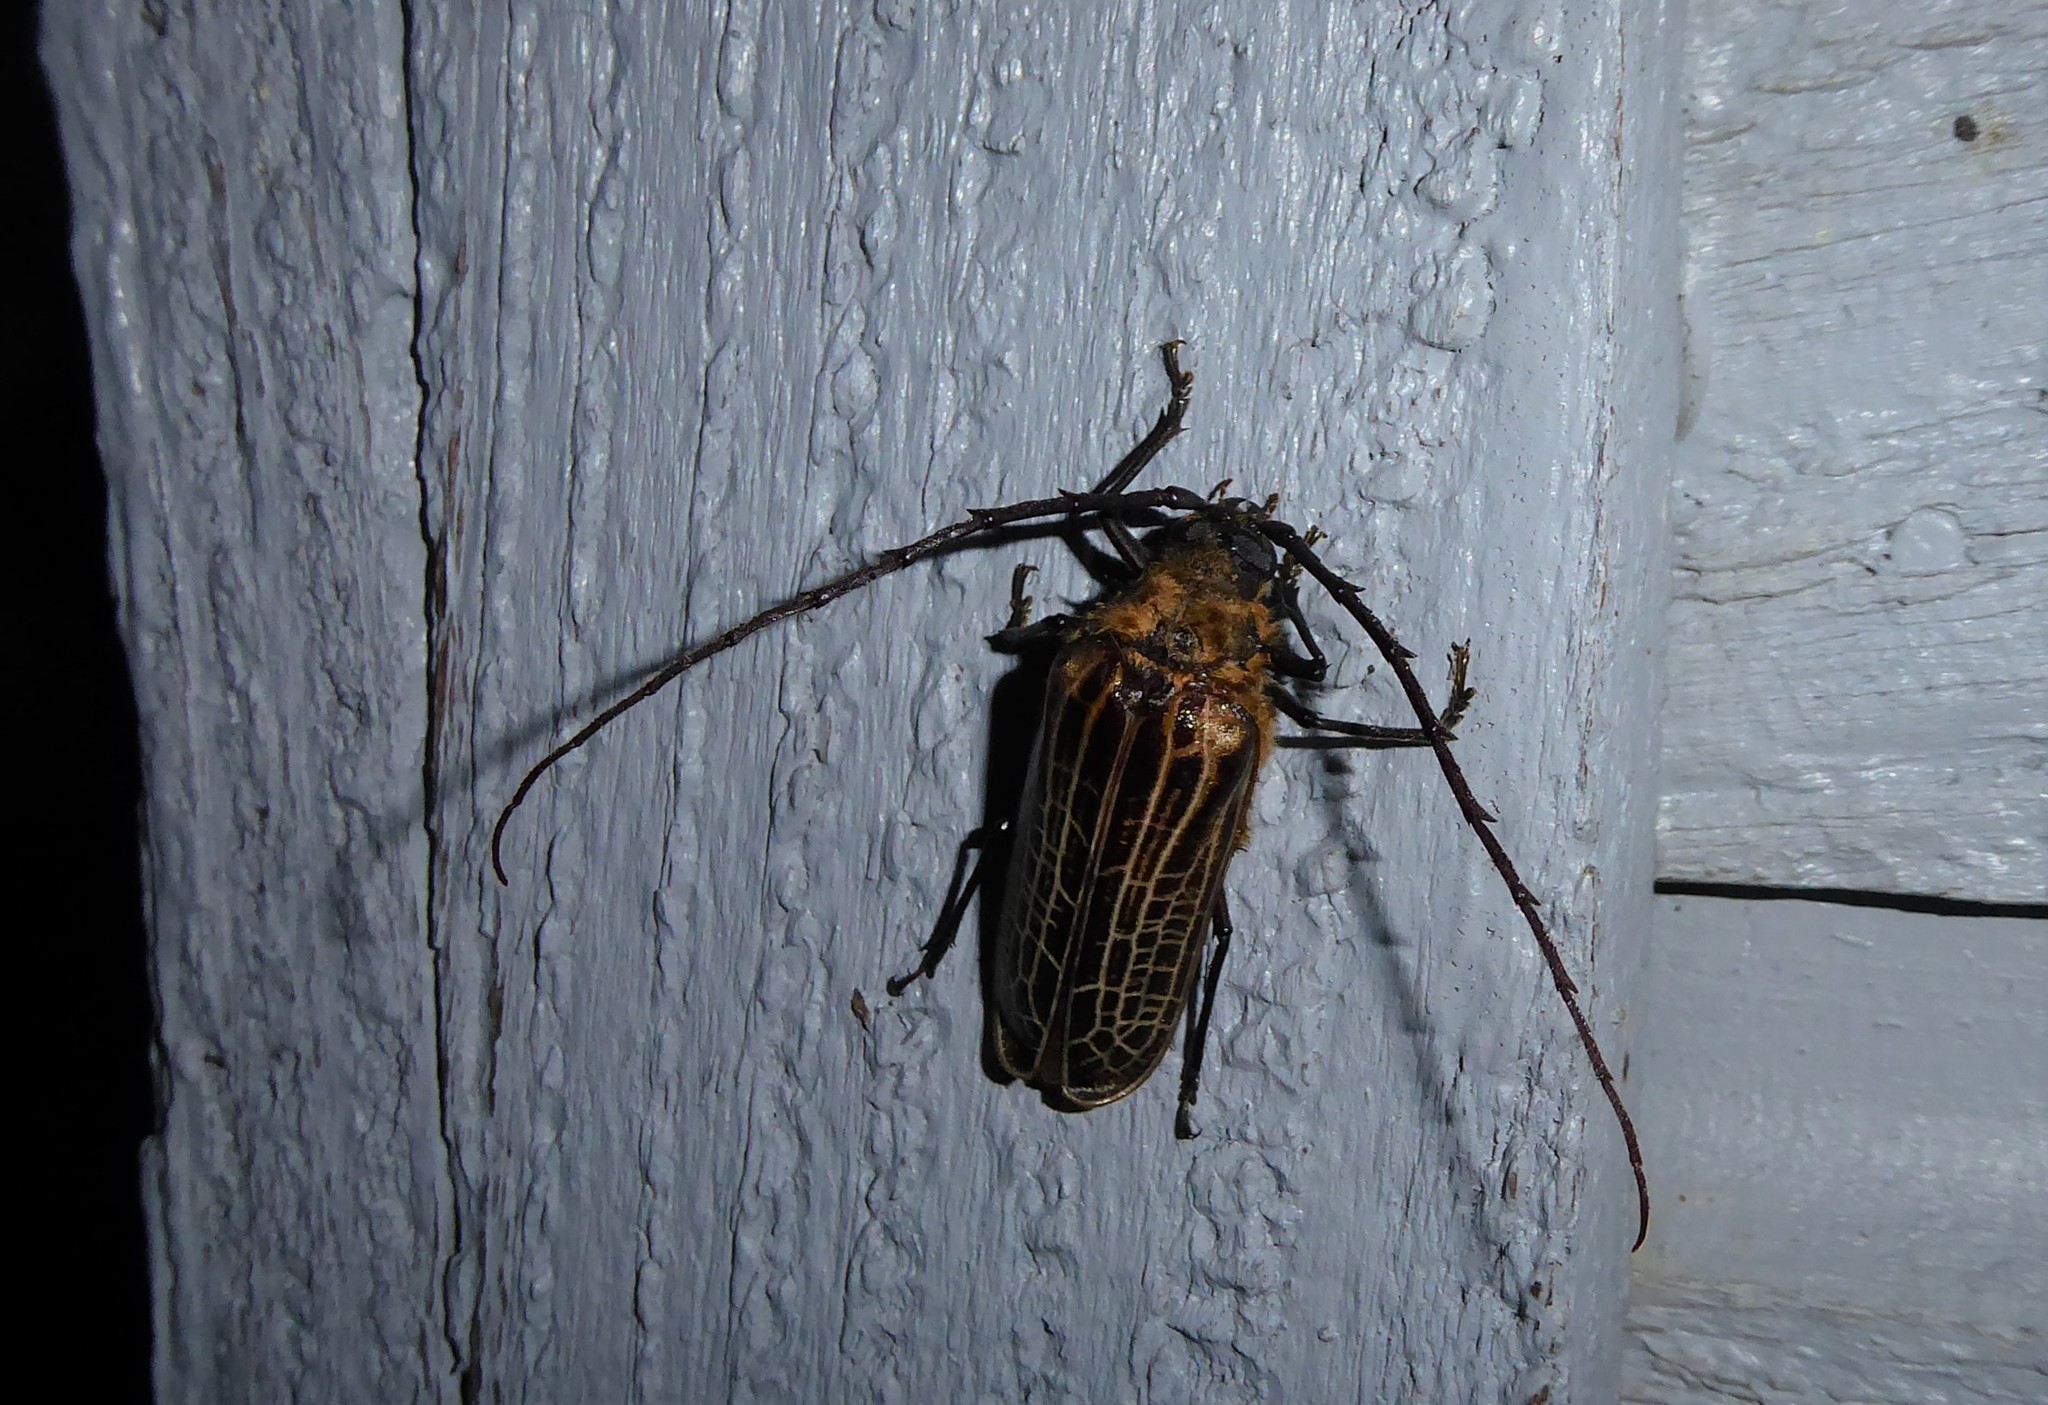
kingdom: Animalia
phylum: Arthropoda
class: Insecta
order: Coleoptera
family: Cerambycidae
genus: Prionoplus
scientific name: Prionoplus reticularis
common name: Huhu beetle
